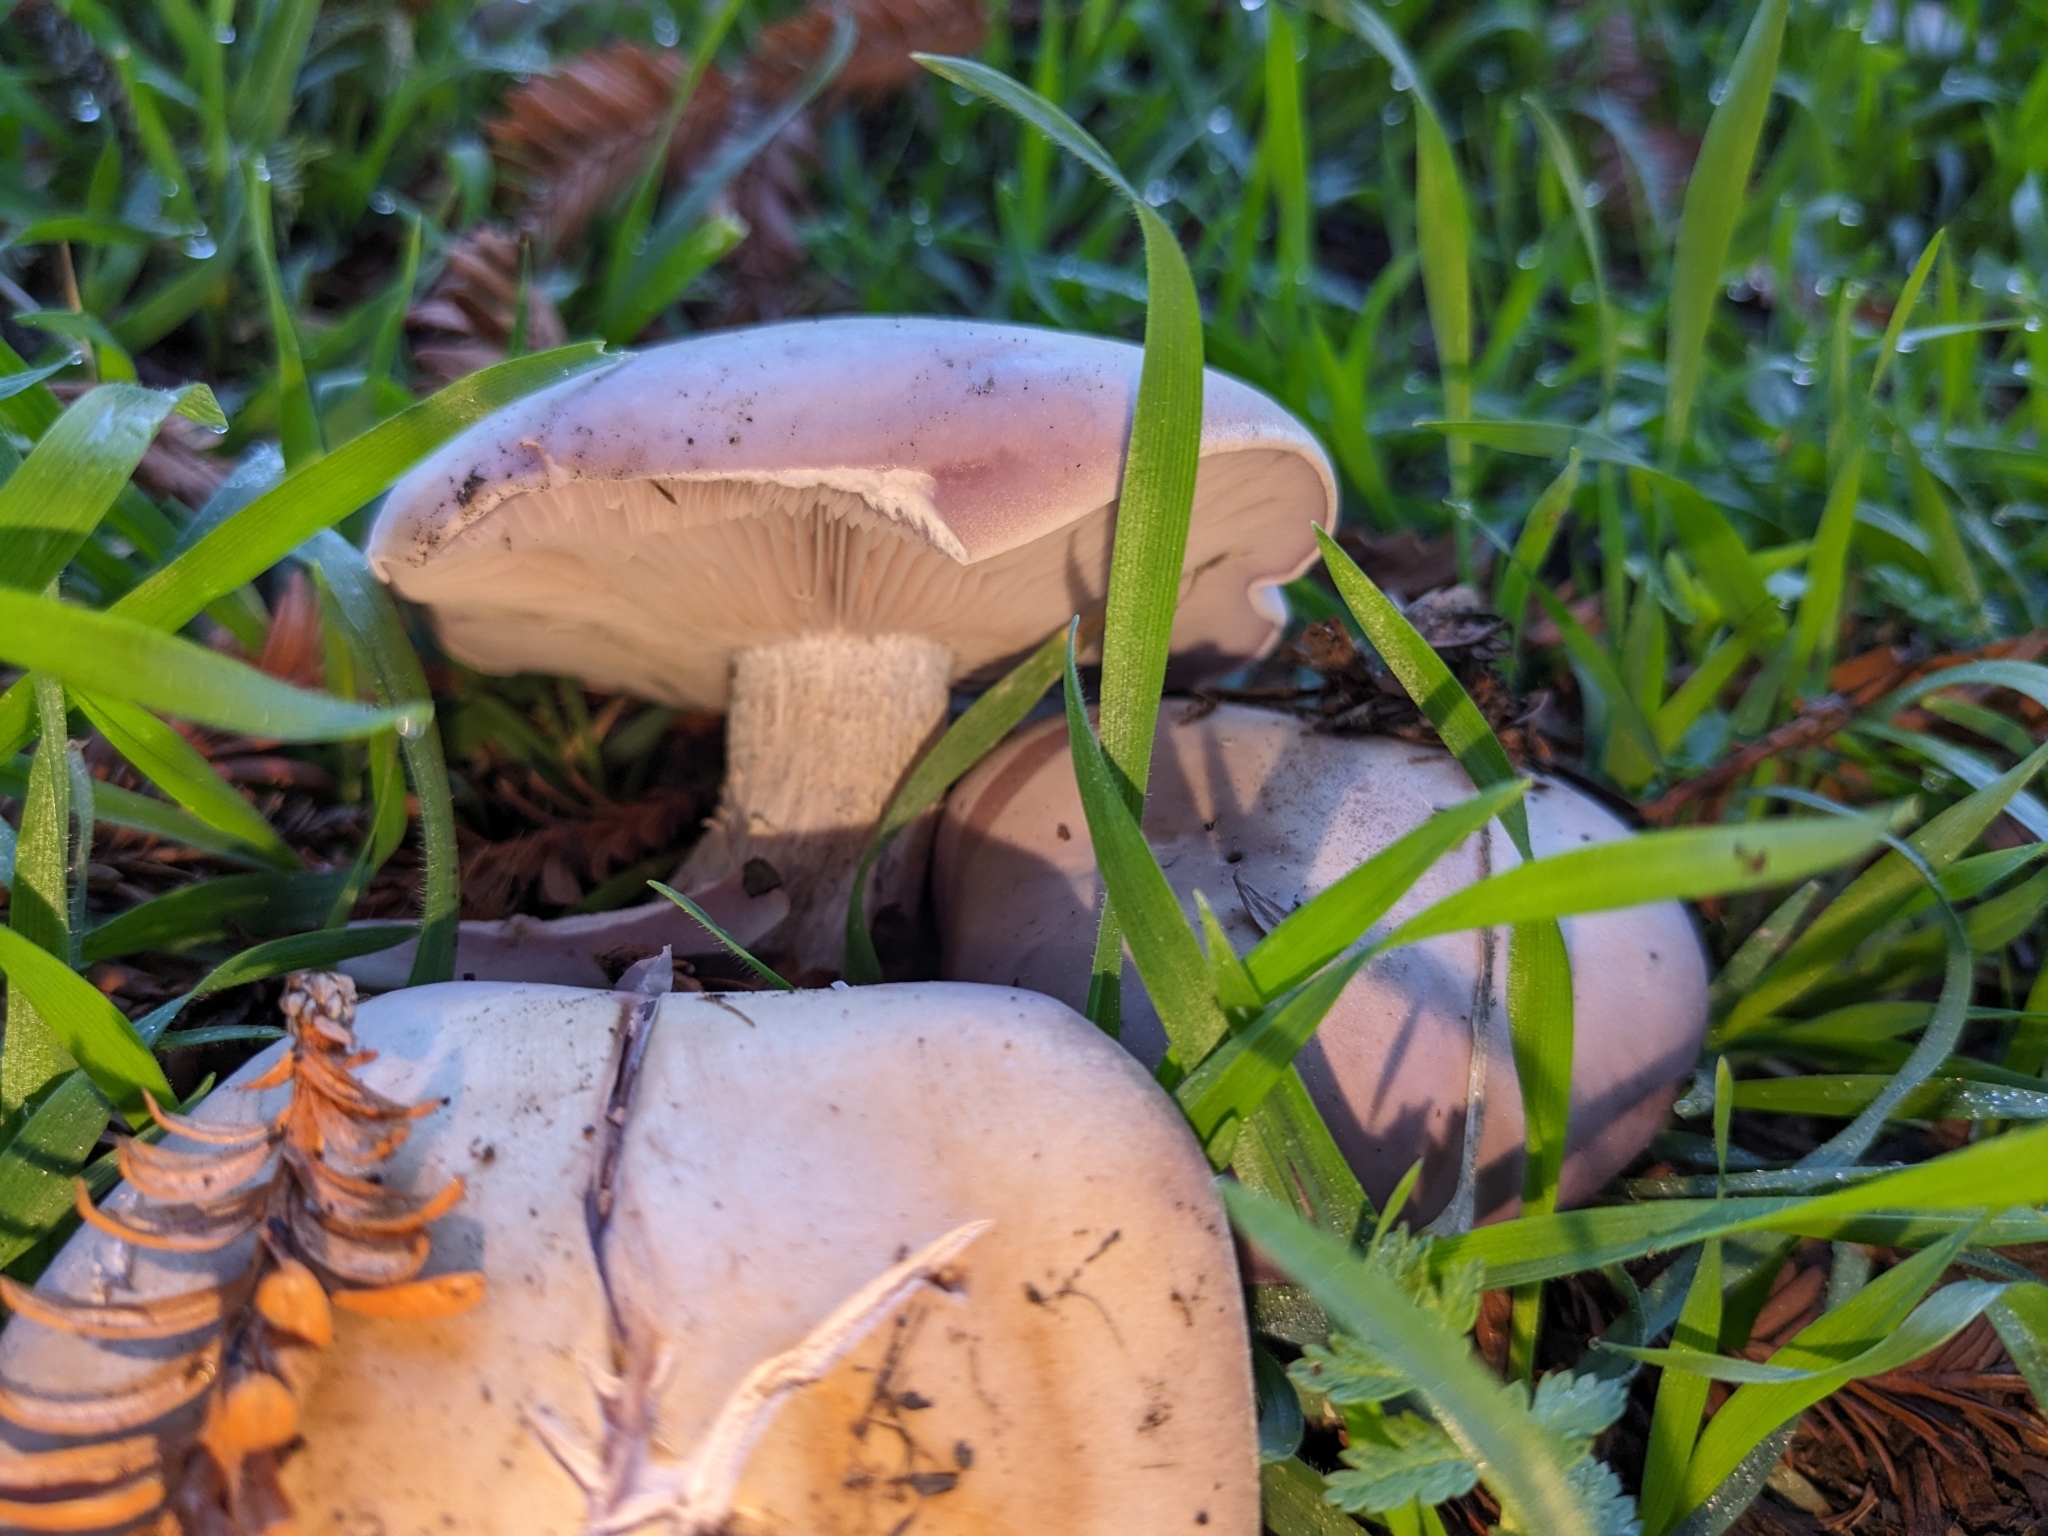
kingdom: Fungi
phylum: Basidiomycota
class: Agaricomycetes
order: Agaricales
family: Tricholomataceae
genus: Collybia
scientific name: Collybia
